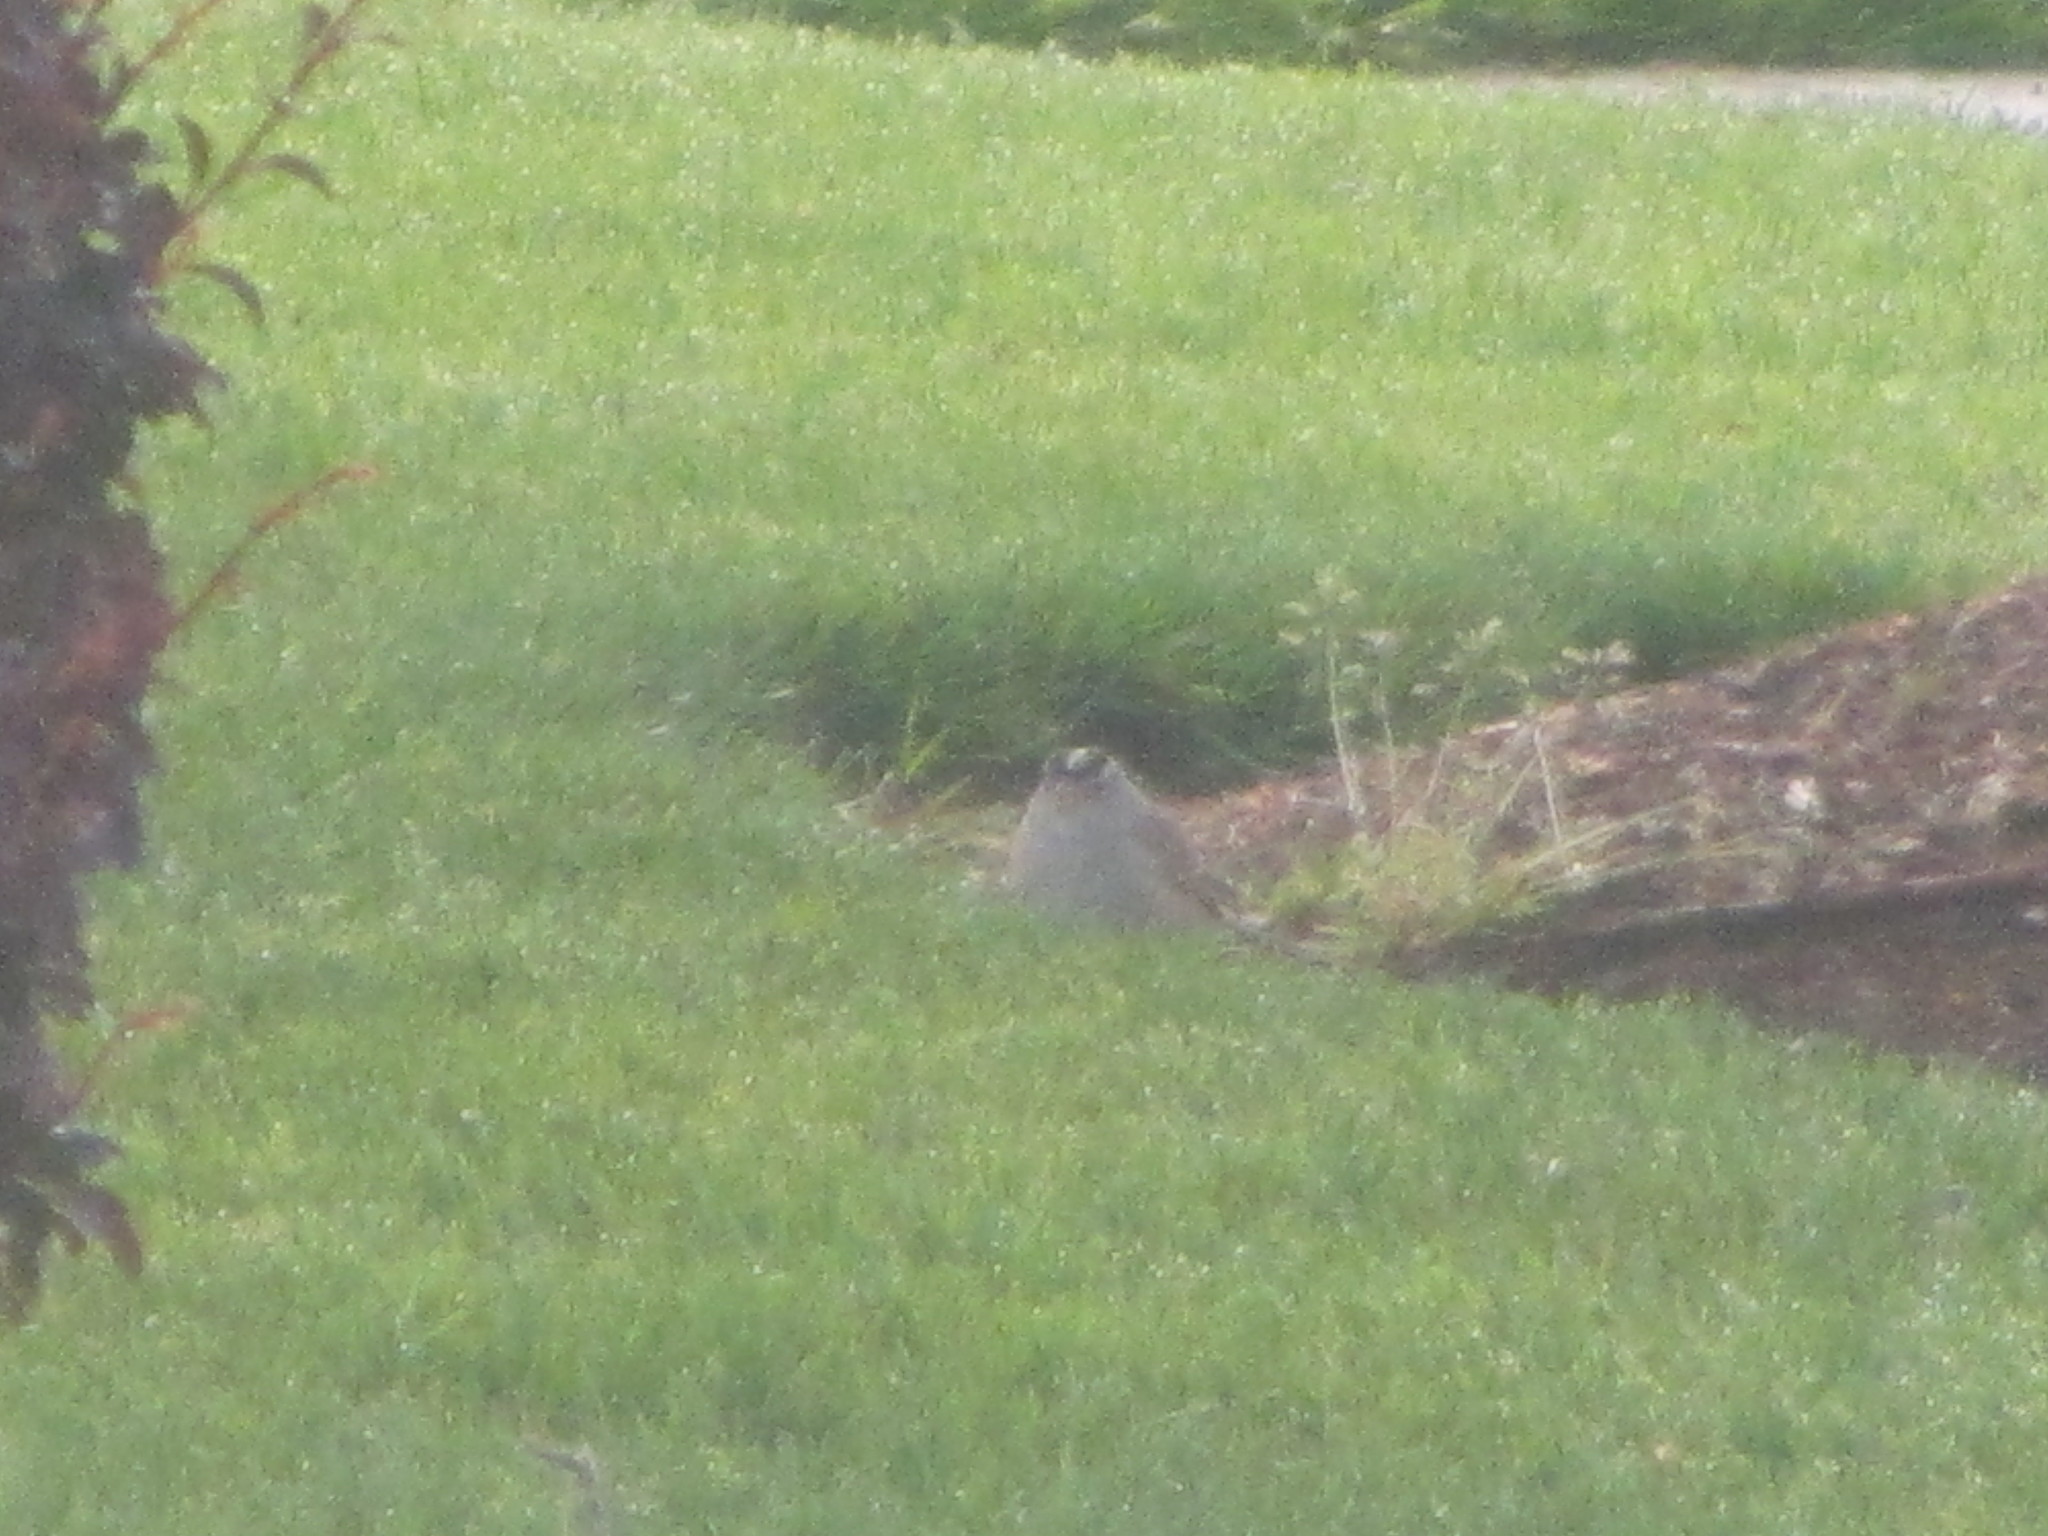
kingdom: Animalia
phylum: Chordata
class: Aves
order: Passeriformes
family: Passerellidae
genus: Zonotrichia
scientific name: Zonotrichia leucophrys
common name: White-crowned sparrow
